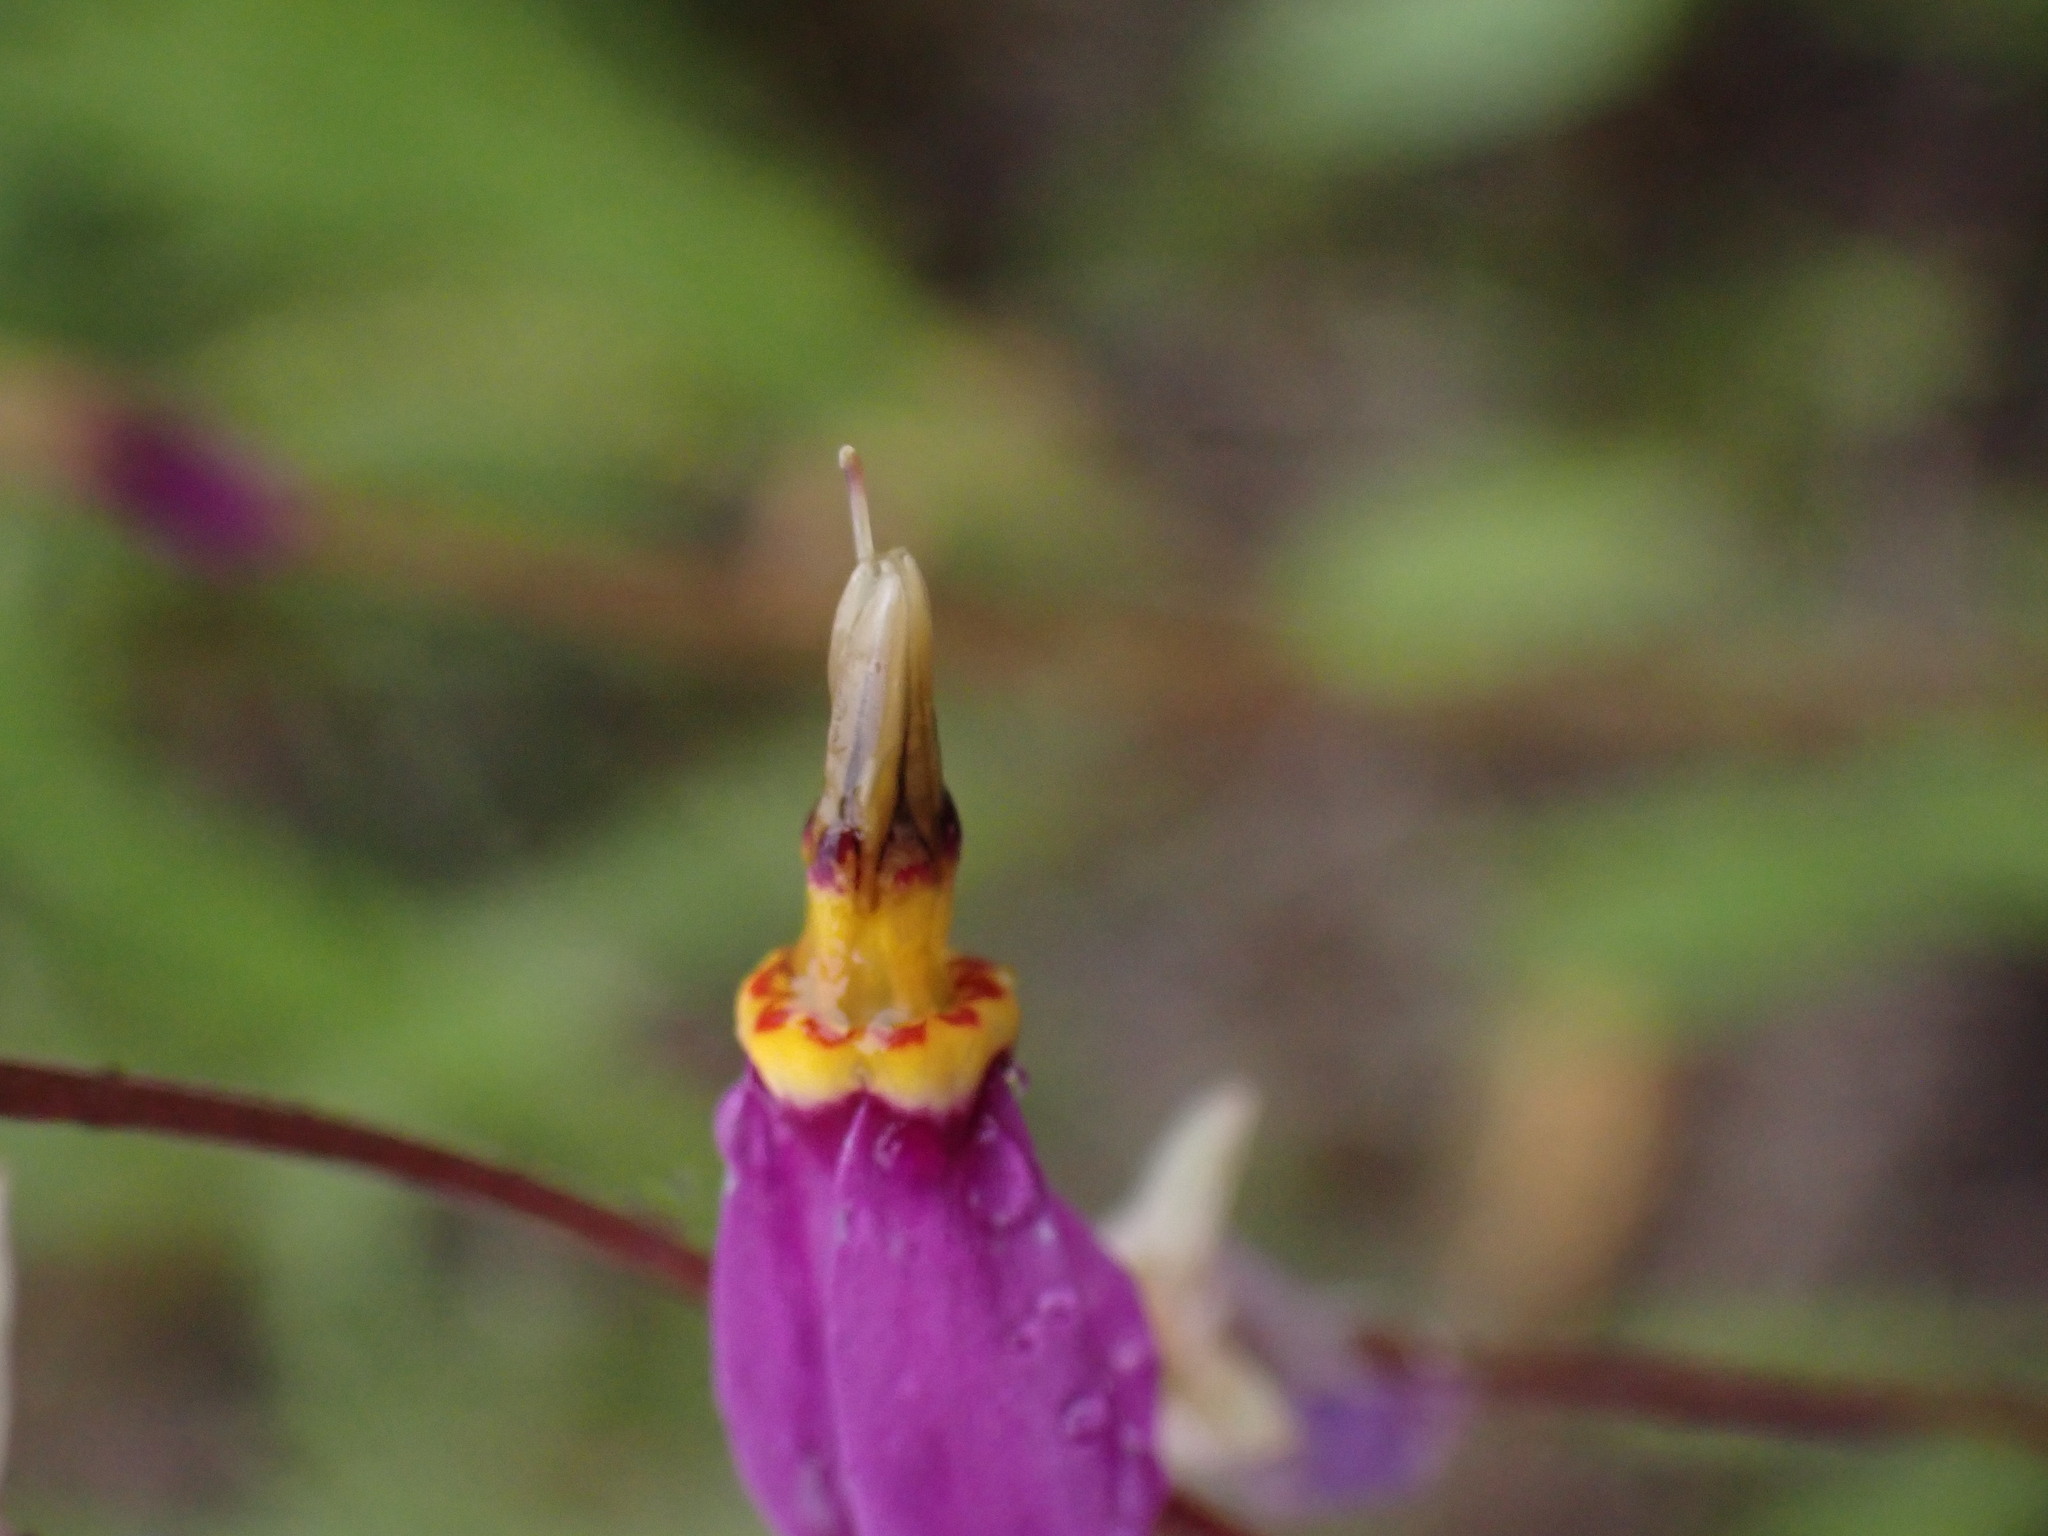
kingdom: Plantae
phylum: Tracheophyta
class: Magnoliopsida
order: Ericales
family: Primulaceae
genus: Dodecatheon
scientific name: Dodecatheon pulchellum
